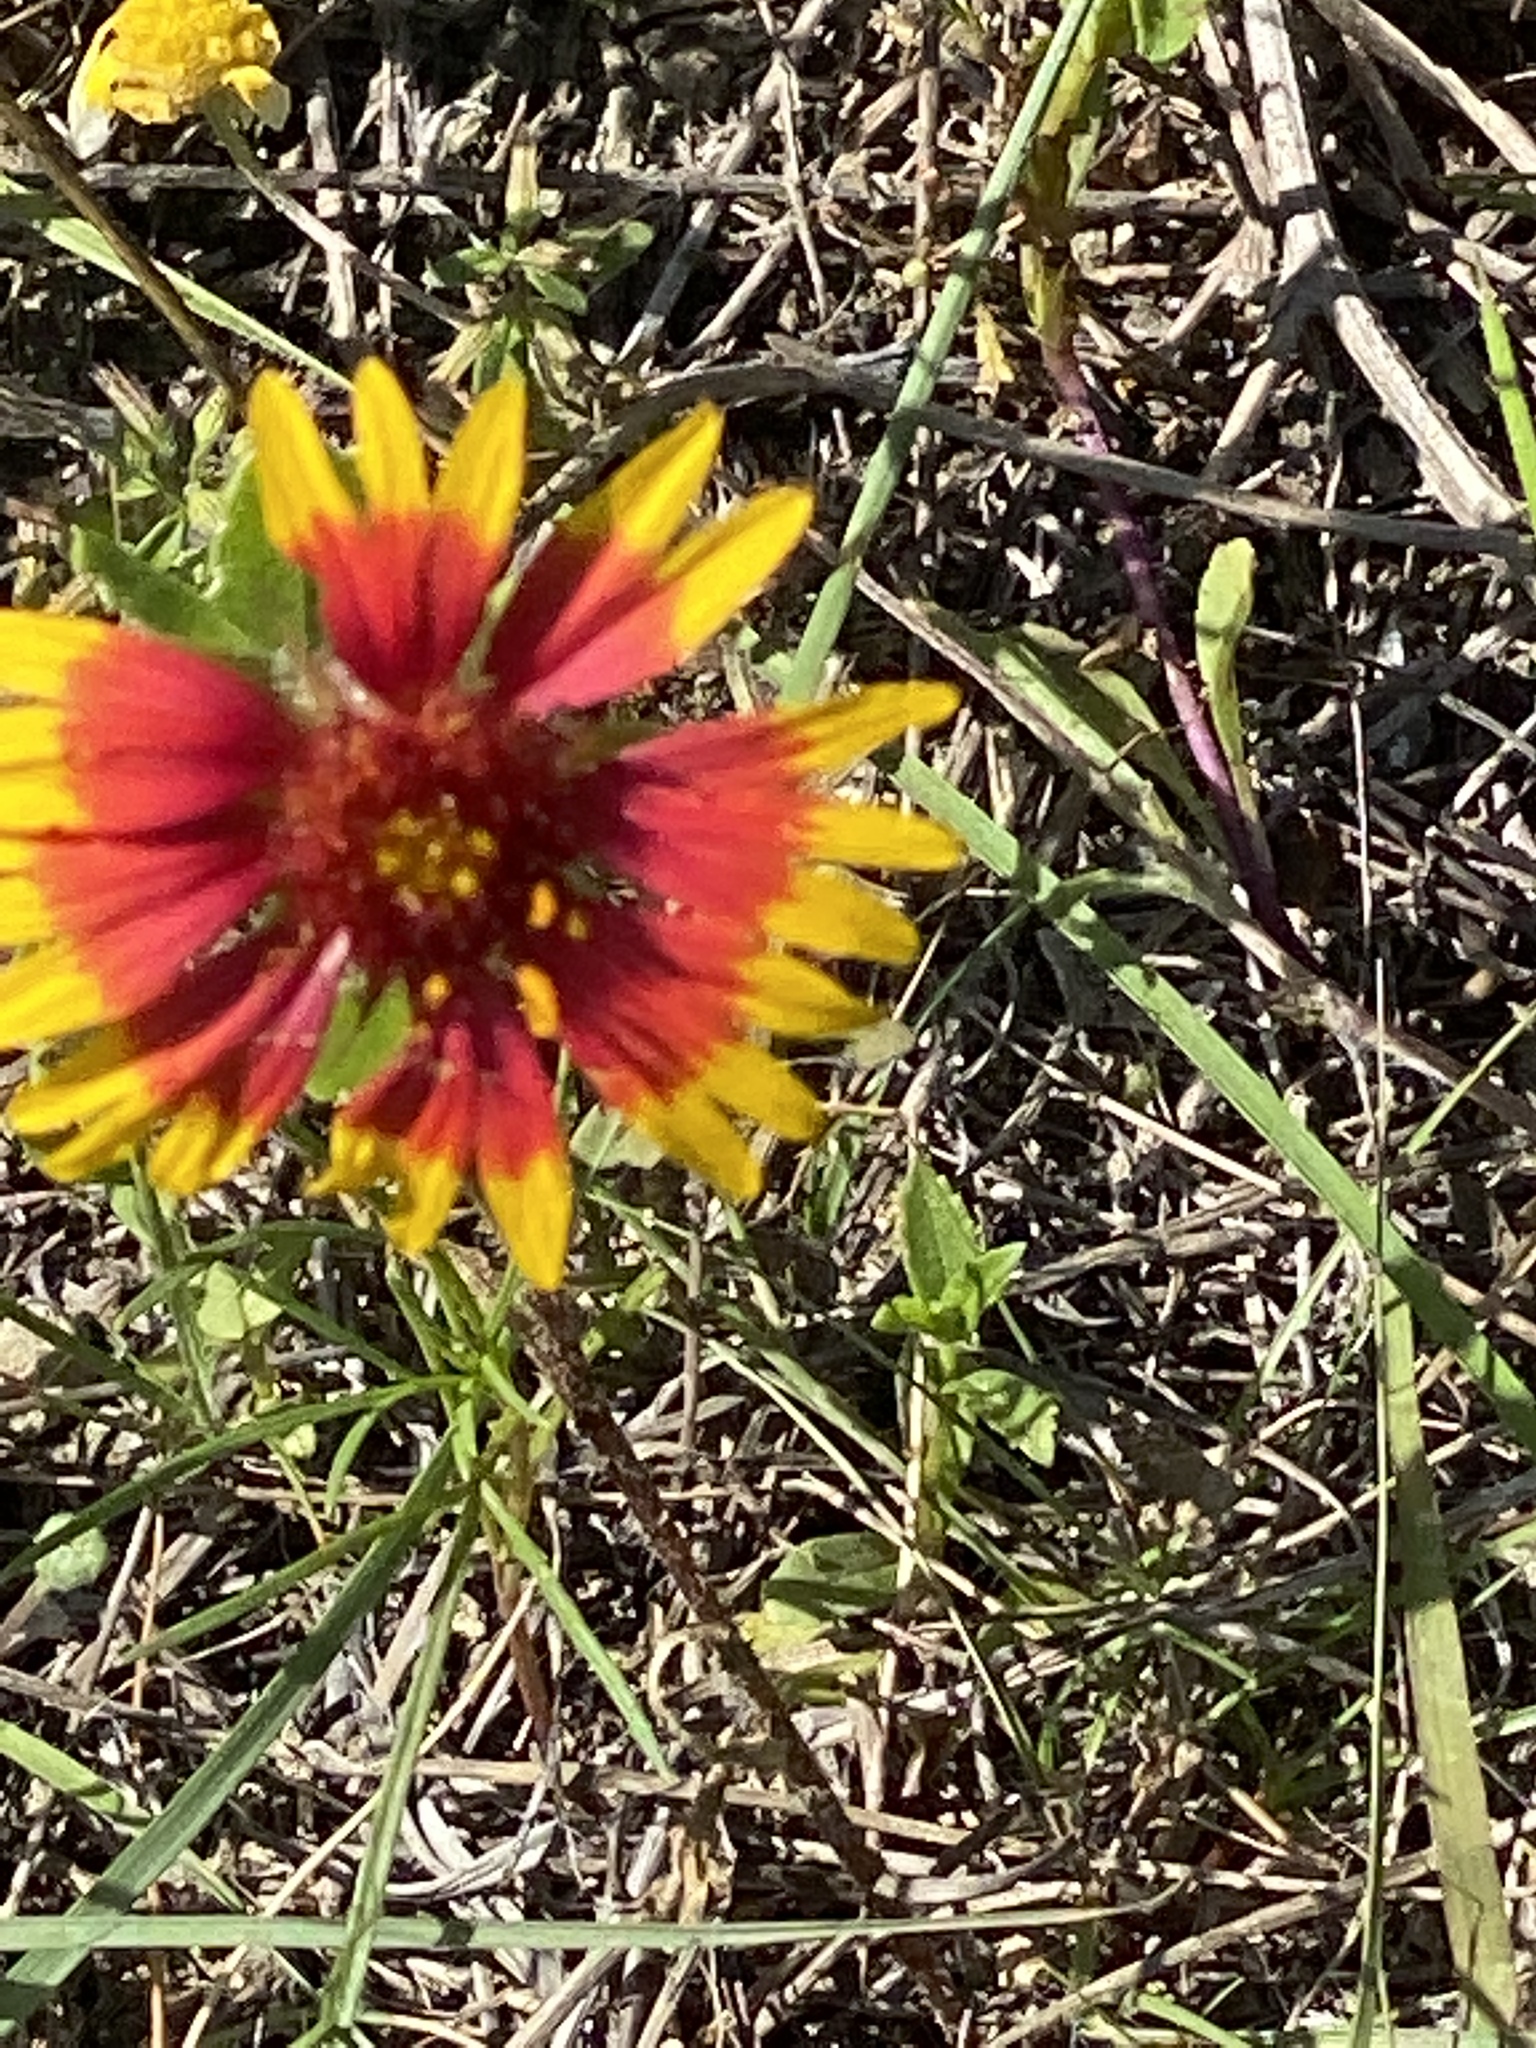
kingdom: Plantae
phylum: Tracheophyta
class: Magnoliopsida
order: Asterales
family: Asteraceae
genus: Gaillardia
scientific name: Gaillardia pulchella
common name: Firewheel
